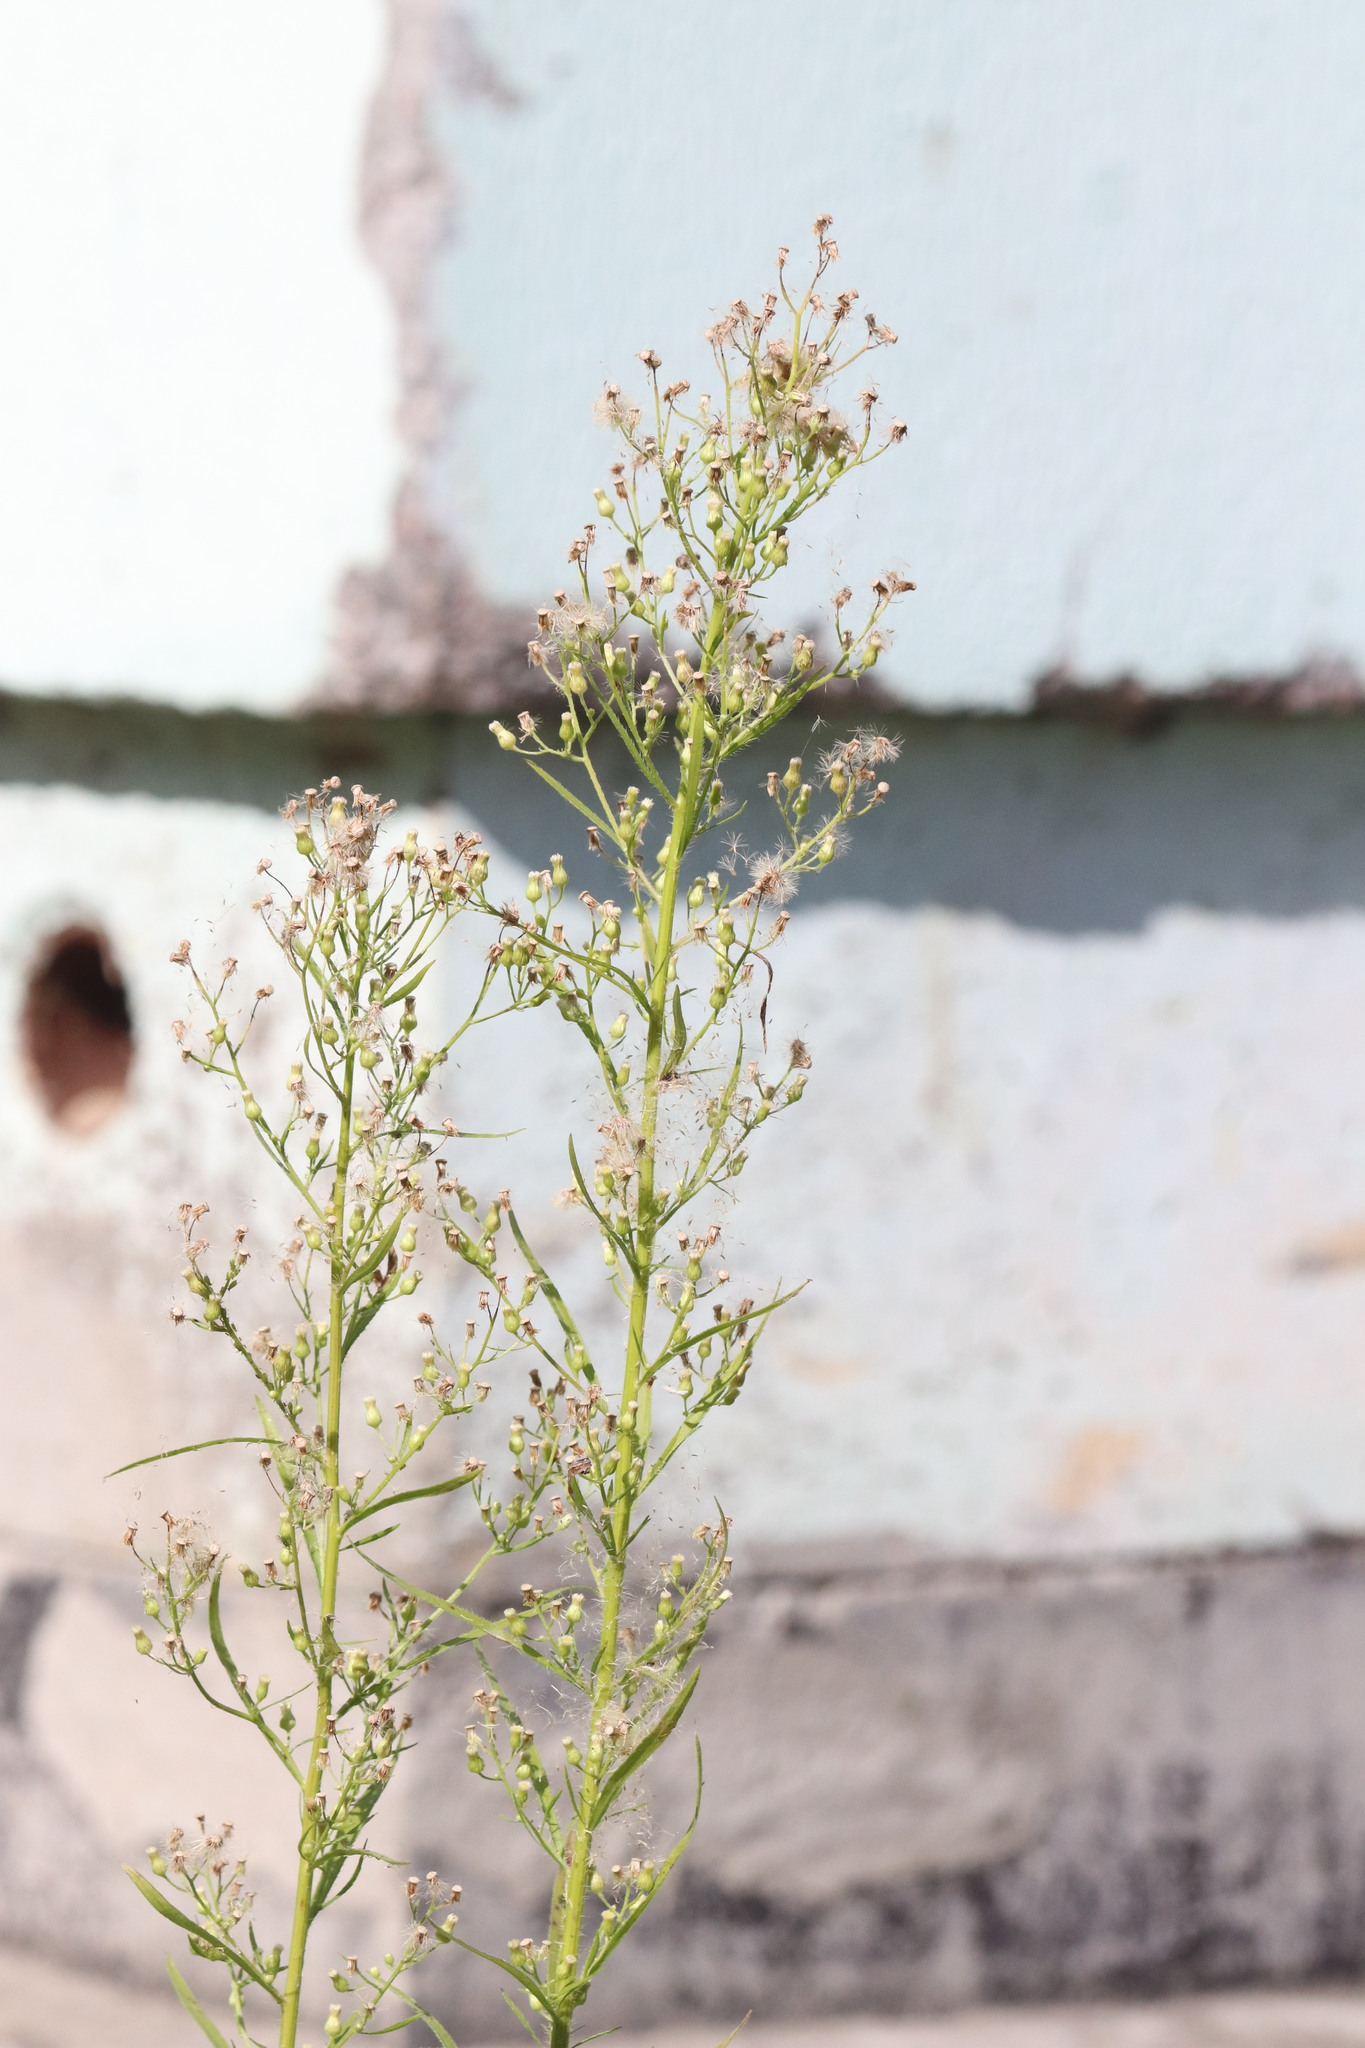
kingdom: Plantae
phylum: Tracheophyta
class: Magnoliopsida
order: Asterales
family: Asteraceae
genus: Erigeron
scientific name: Erigeron canadensis
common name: Canadian fleabane
